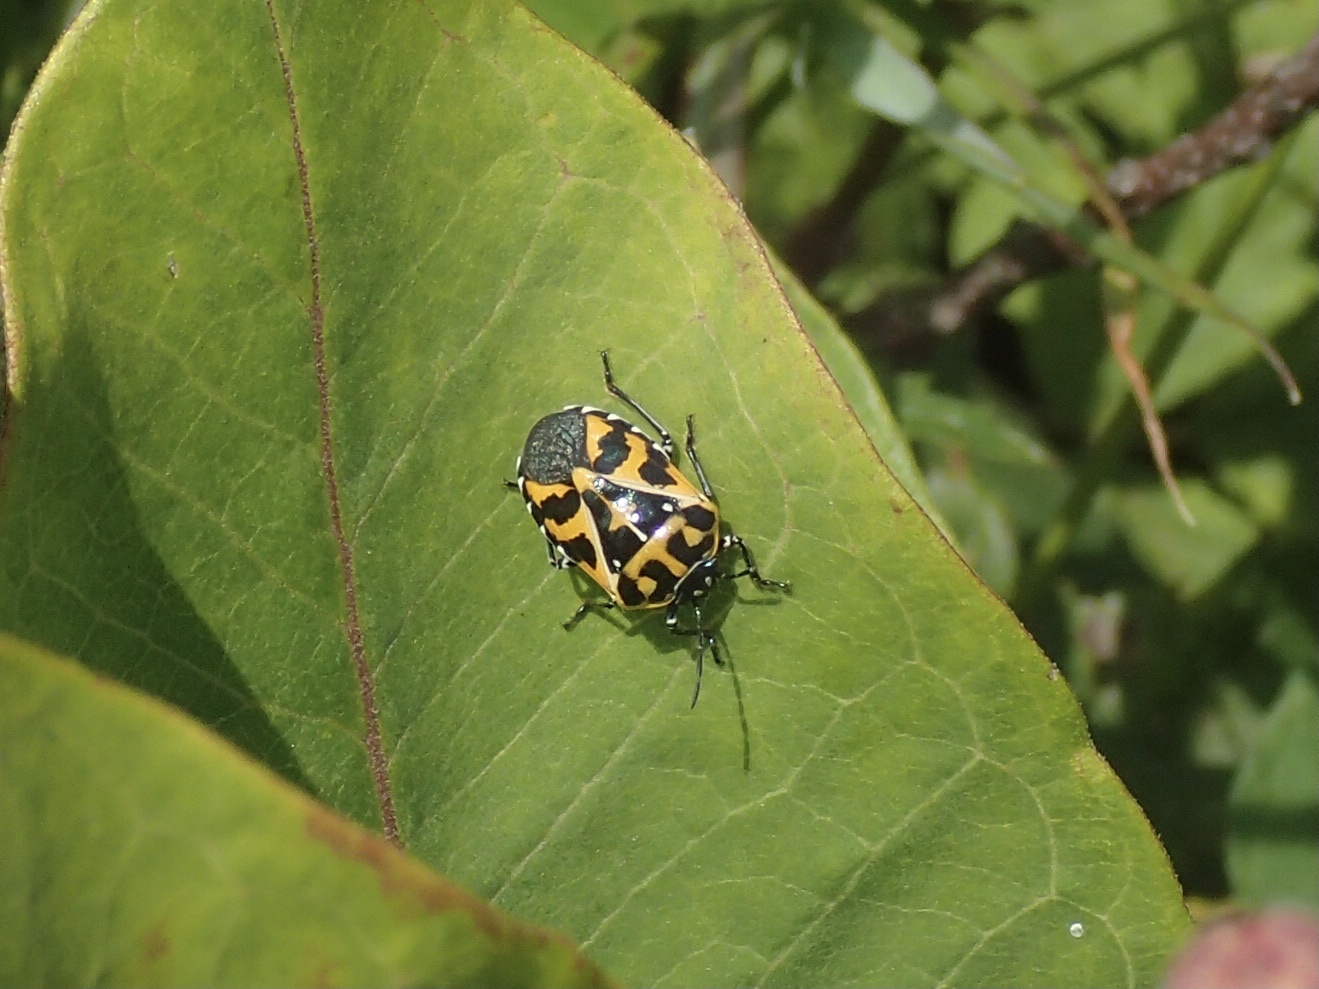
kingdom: Animalia
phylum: Arthropoda
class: Insecta
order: Hemiptera
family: Pentatomidae
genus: Murgantia
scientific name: Murgantia histrionica
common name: Harlequin bug
